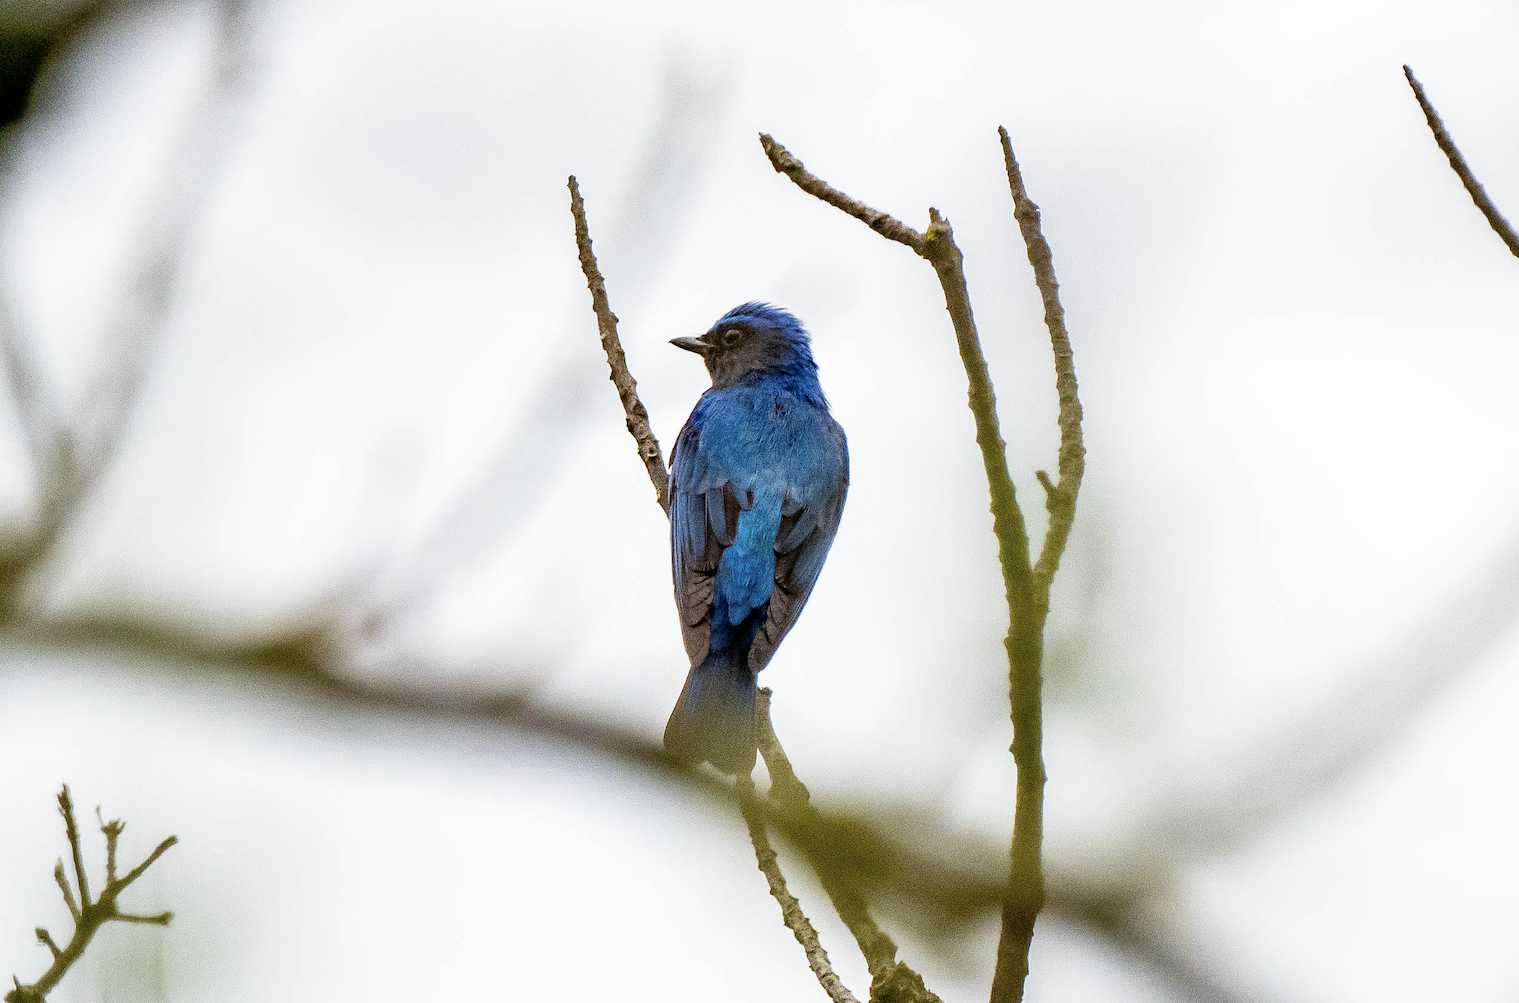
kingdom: Animalia
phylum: Chordata
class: Aves
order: Passeriformes
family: Muscicapidae
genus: Cyanoptila
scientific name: Cyanoptila cyanomelana
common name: Blue-and-white flycatcher
